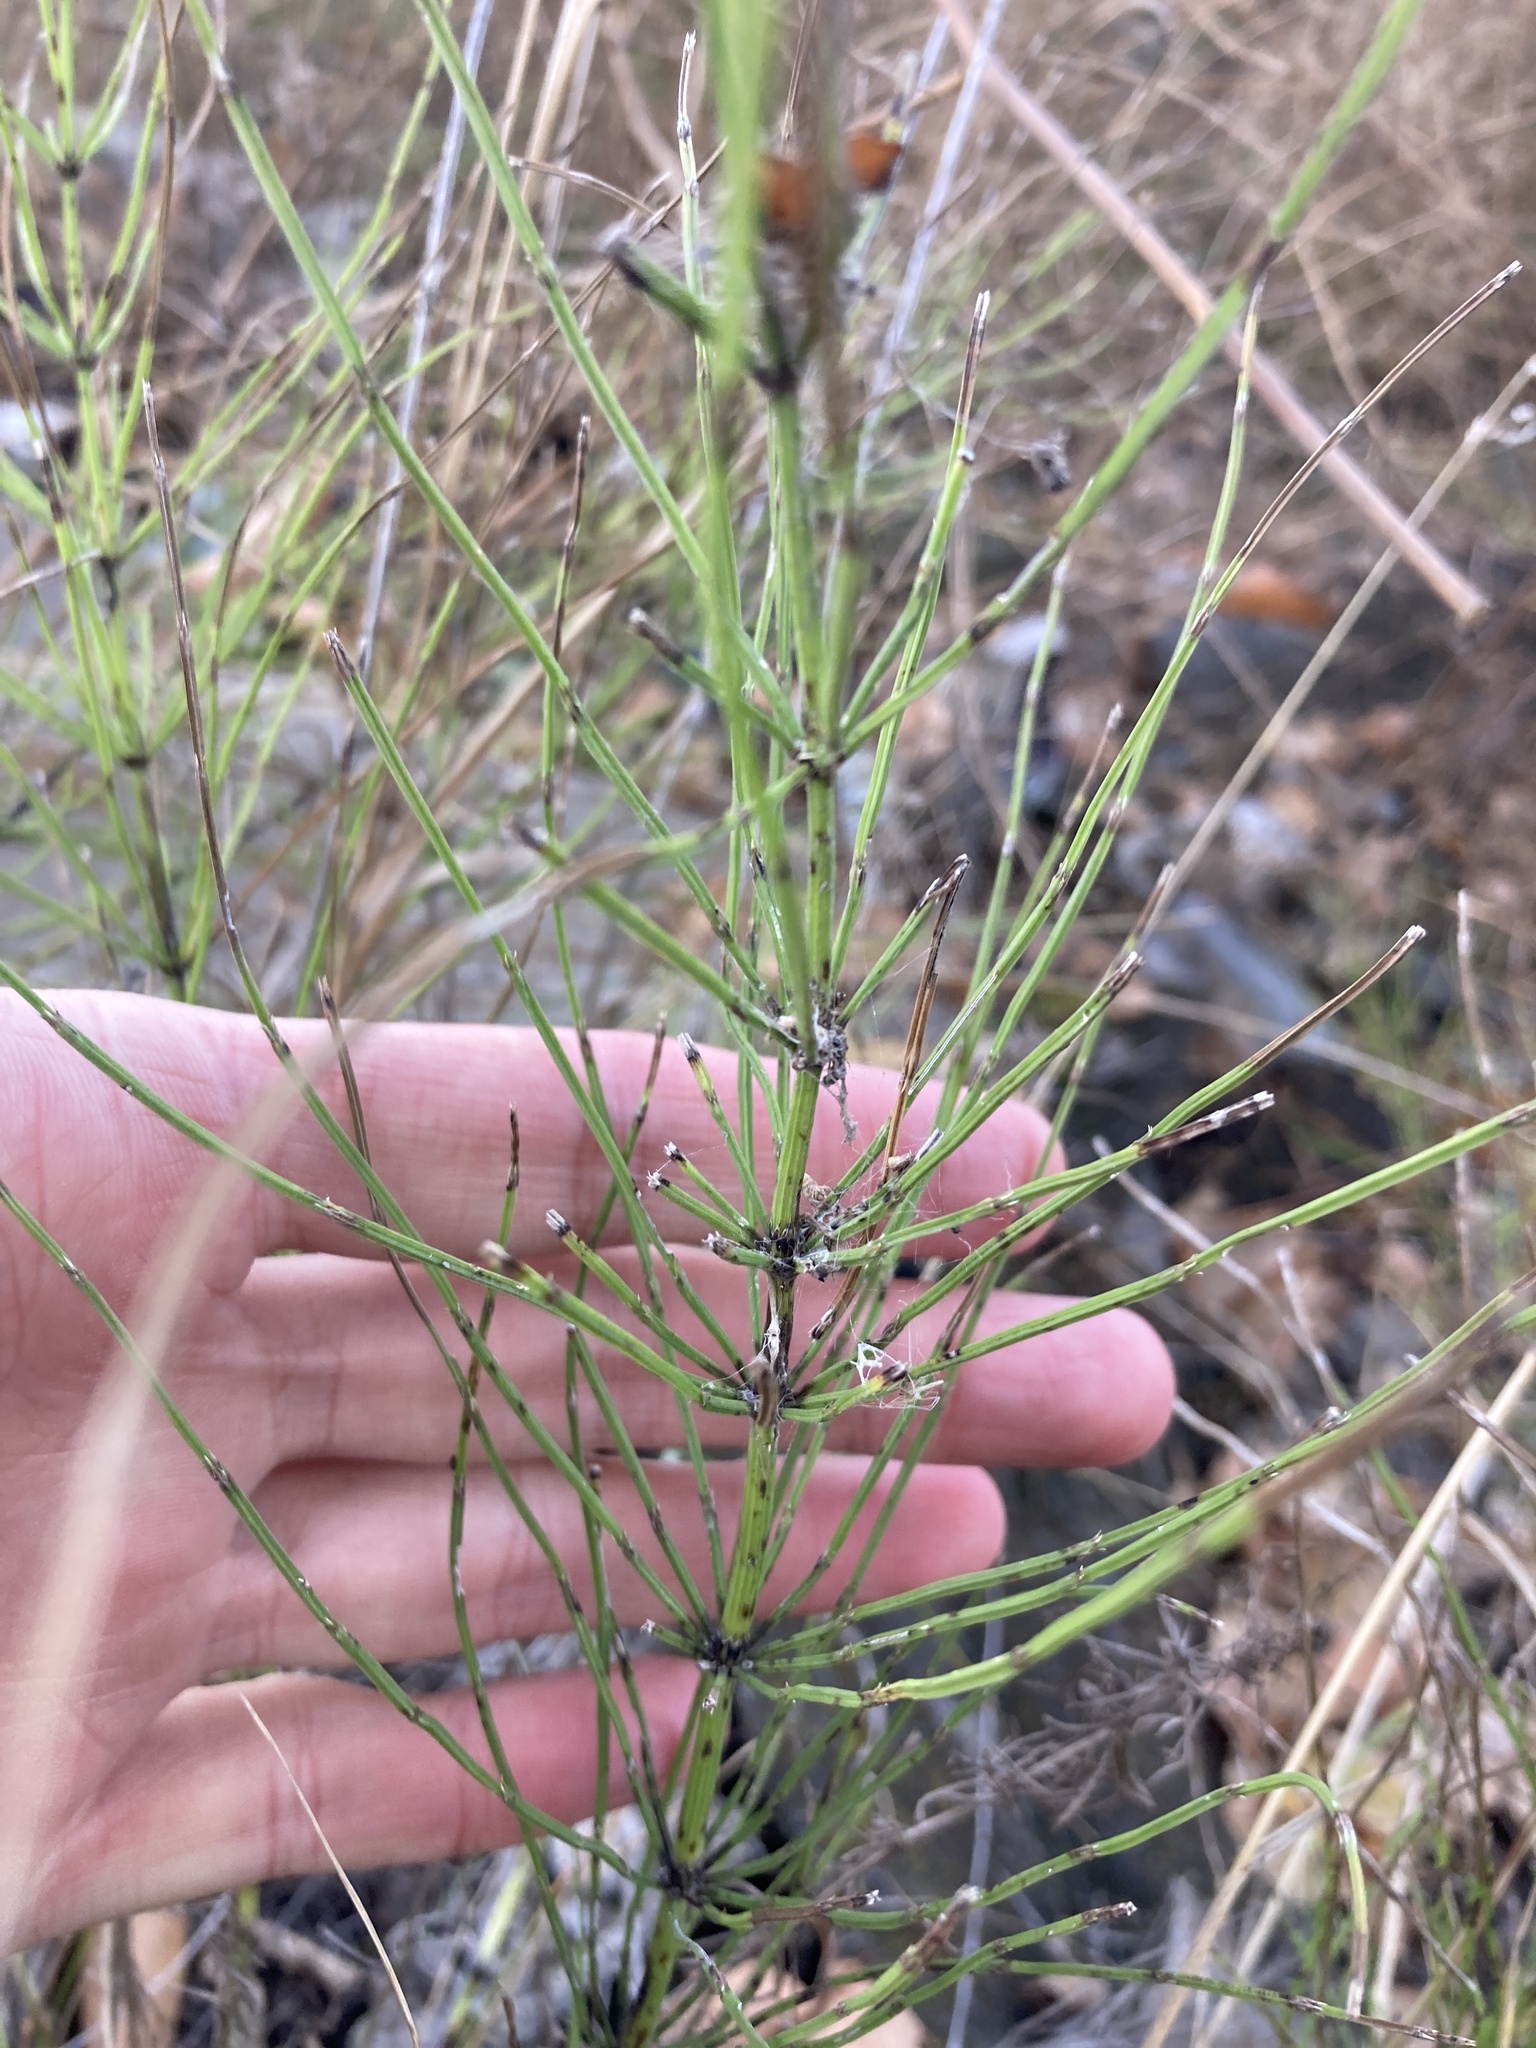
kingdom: Plantae
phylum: Tracheophyta
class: Polypodiopsida
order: Equisetales
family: Equisetaceae
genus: Equisetum
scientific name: Equisetum arvense
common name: Field horsetail
